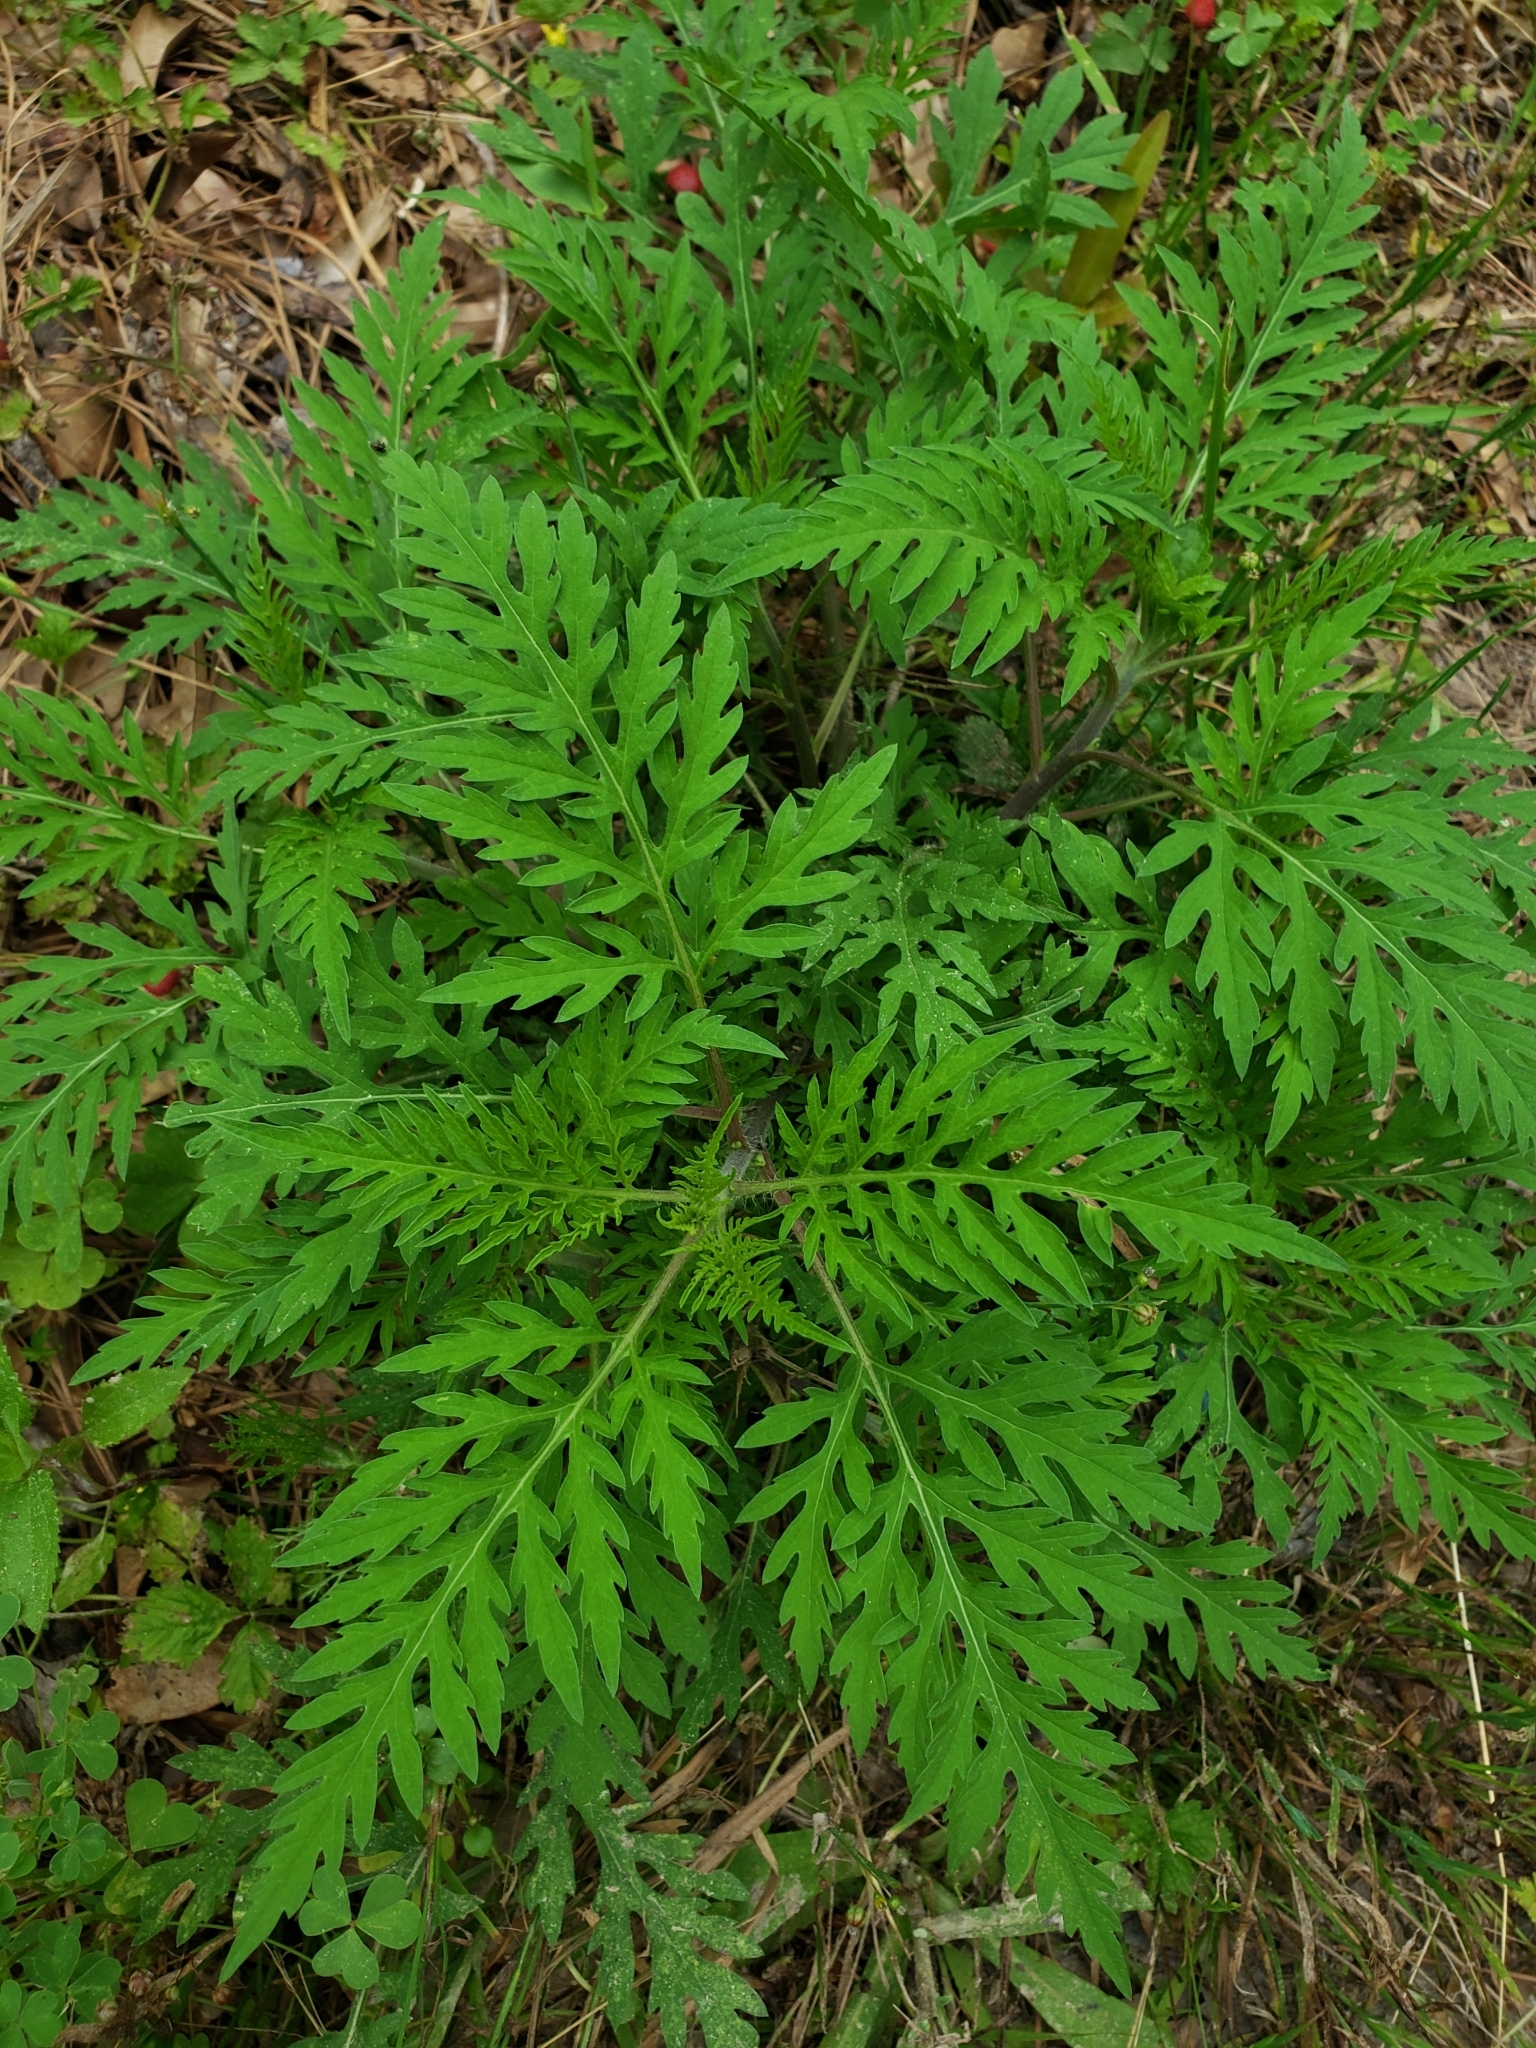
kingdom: Plantae
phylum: Tracheophyta
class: Magnoliopsida
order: Asterales
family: Asteraceae
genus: Ambrosia
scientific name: Ambrosia artemisiifolia
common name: Annual ragweed
